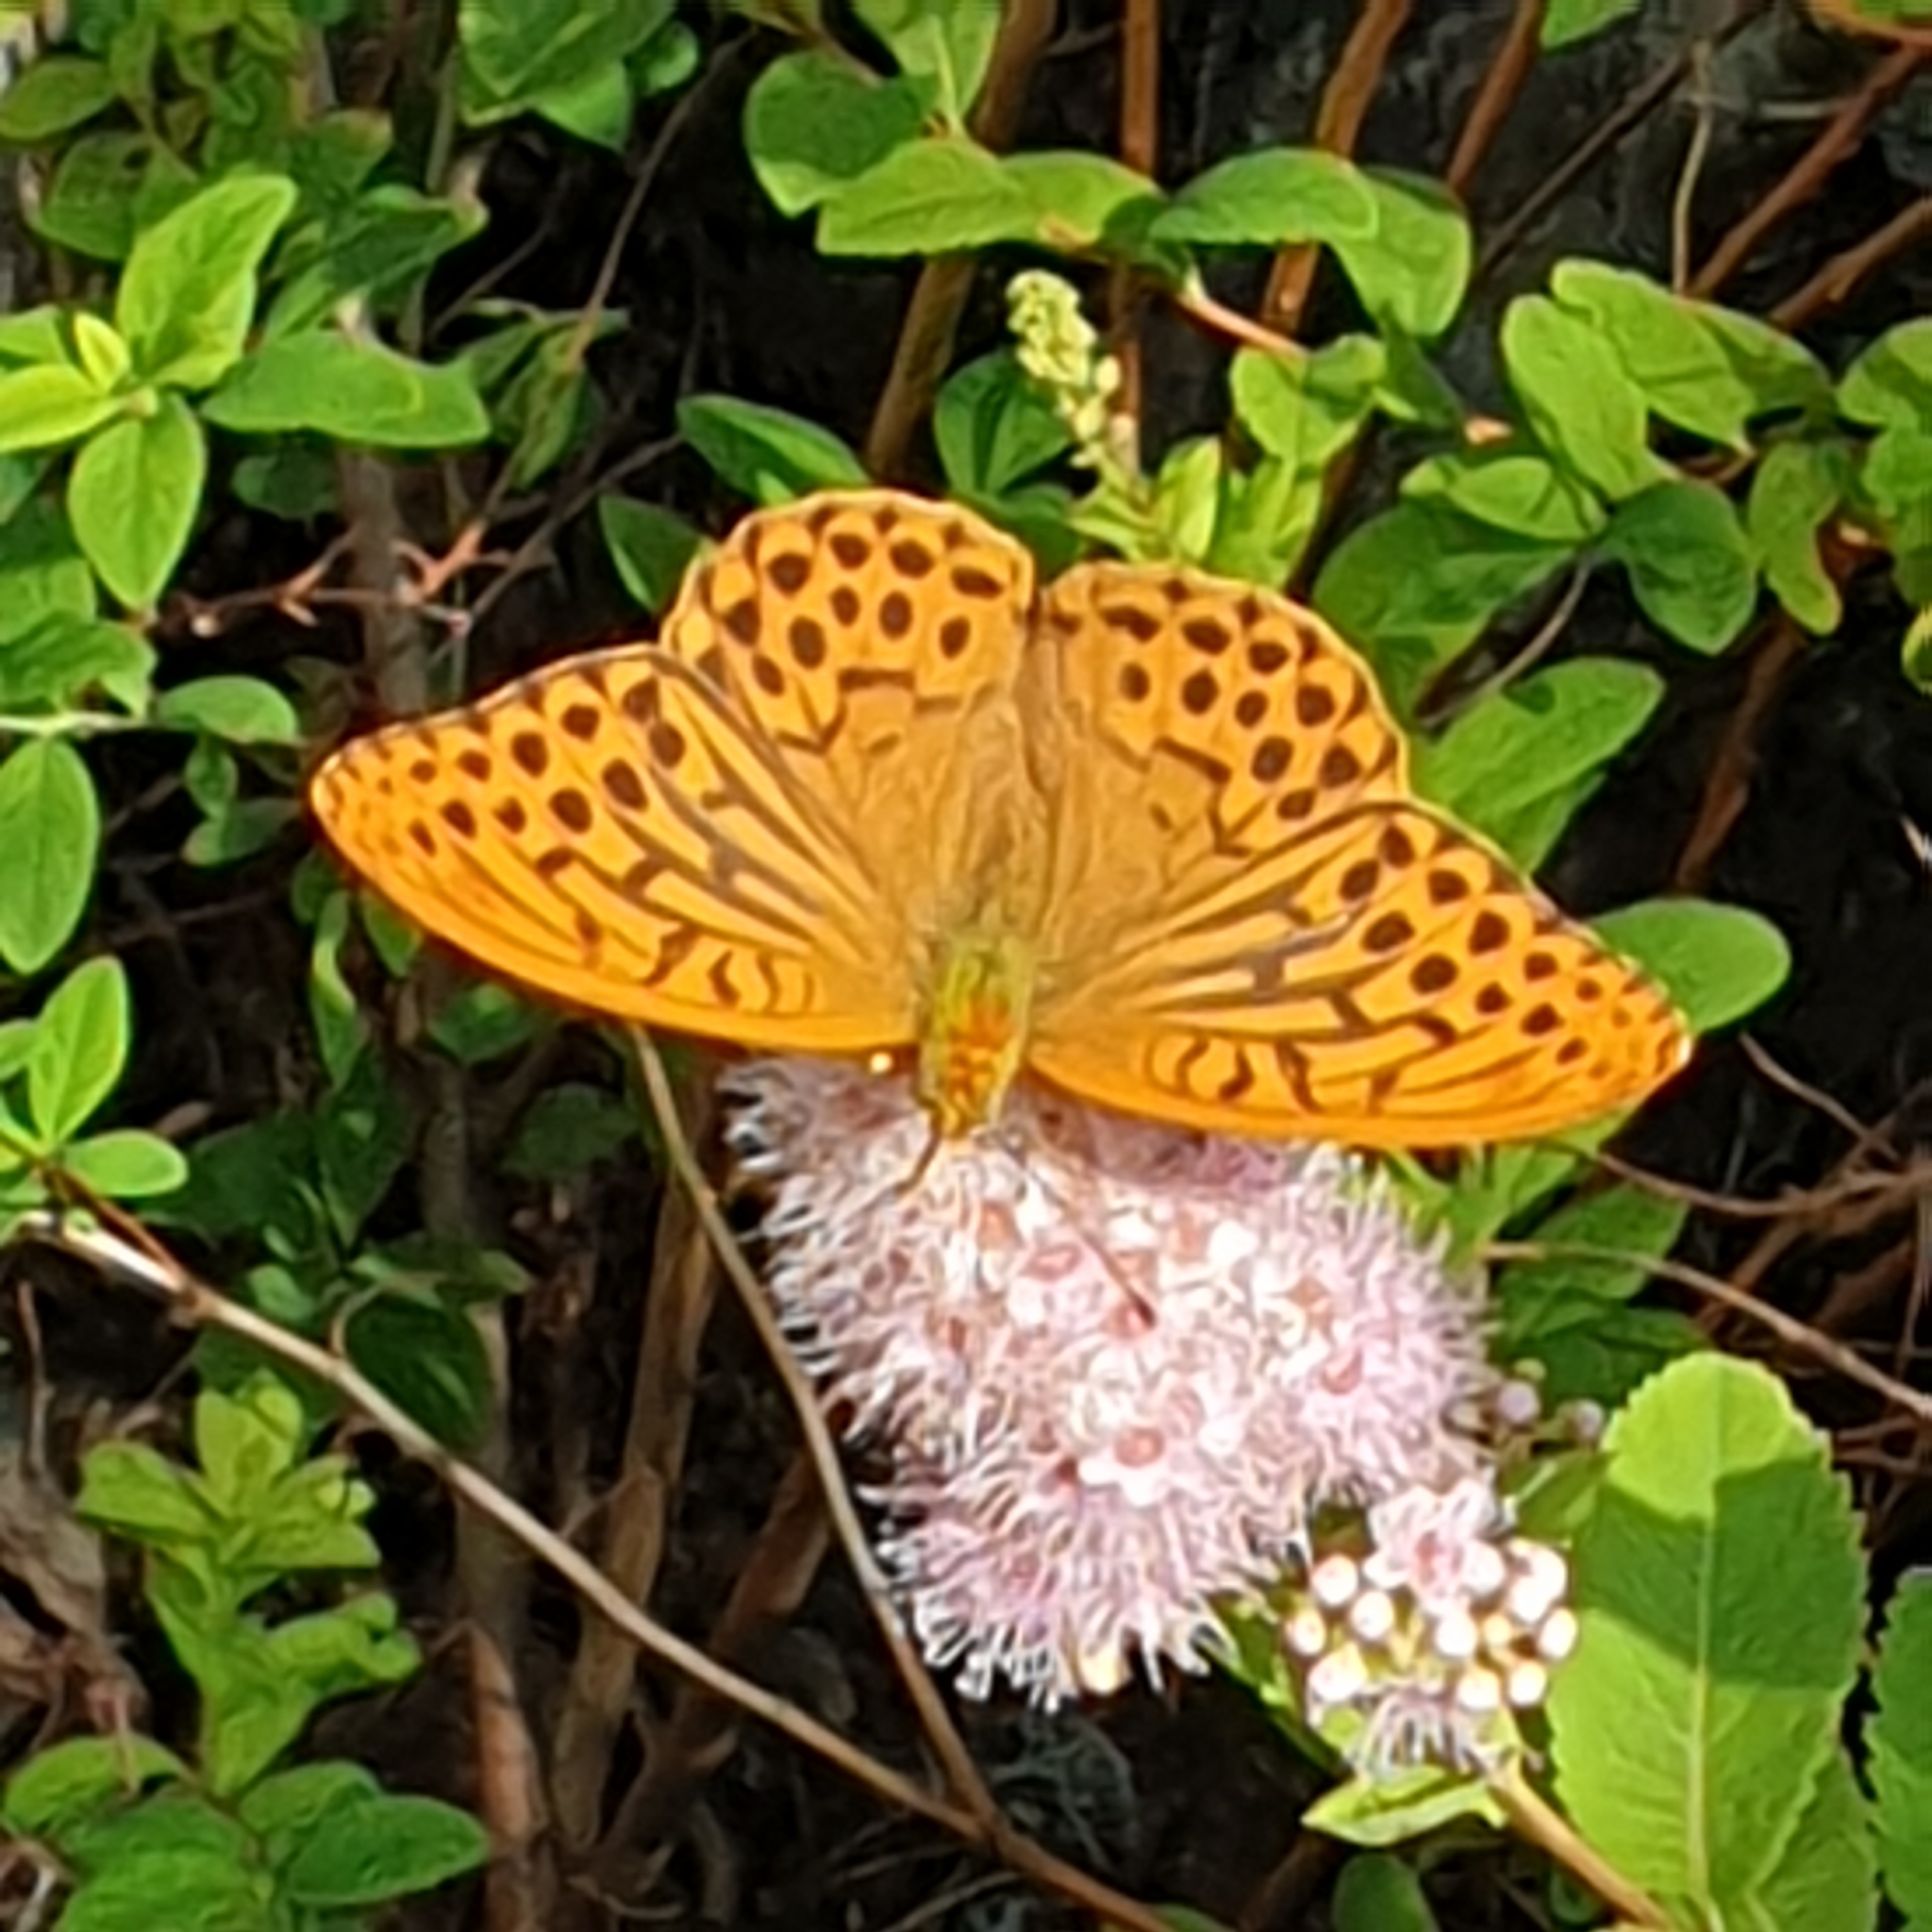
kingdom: Animalia
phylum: Arthropoda
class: Insecta
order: Lepidoptera
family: Nymphalidae
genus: Argynnis
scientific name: Argynnis paphia
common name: Silver-washed fritillary
